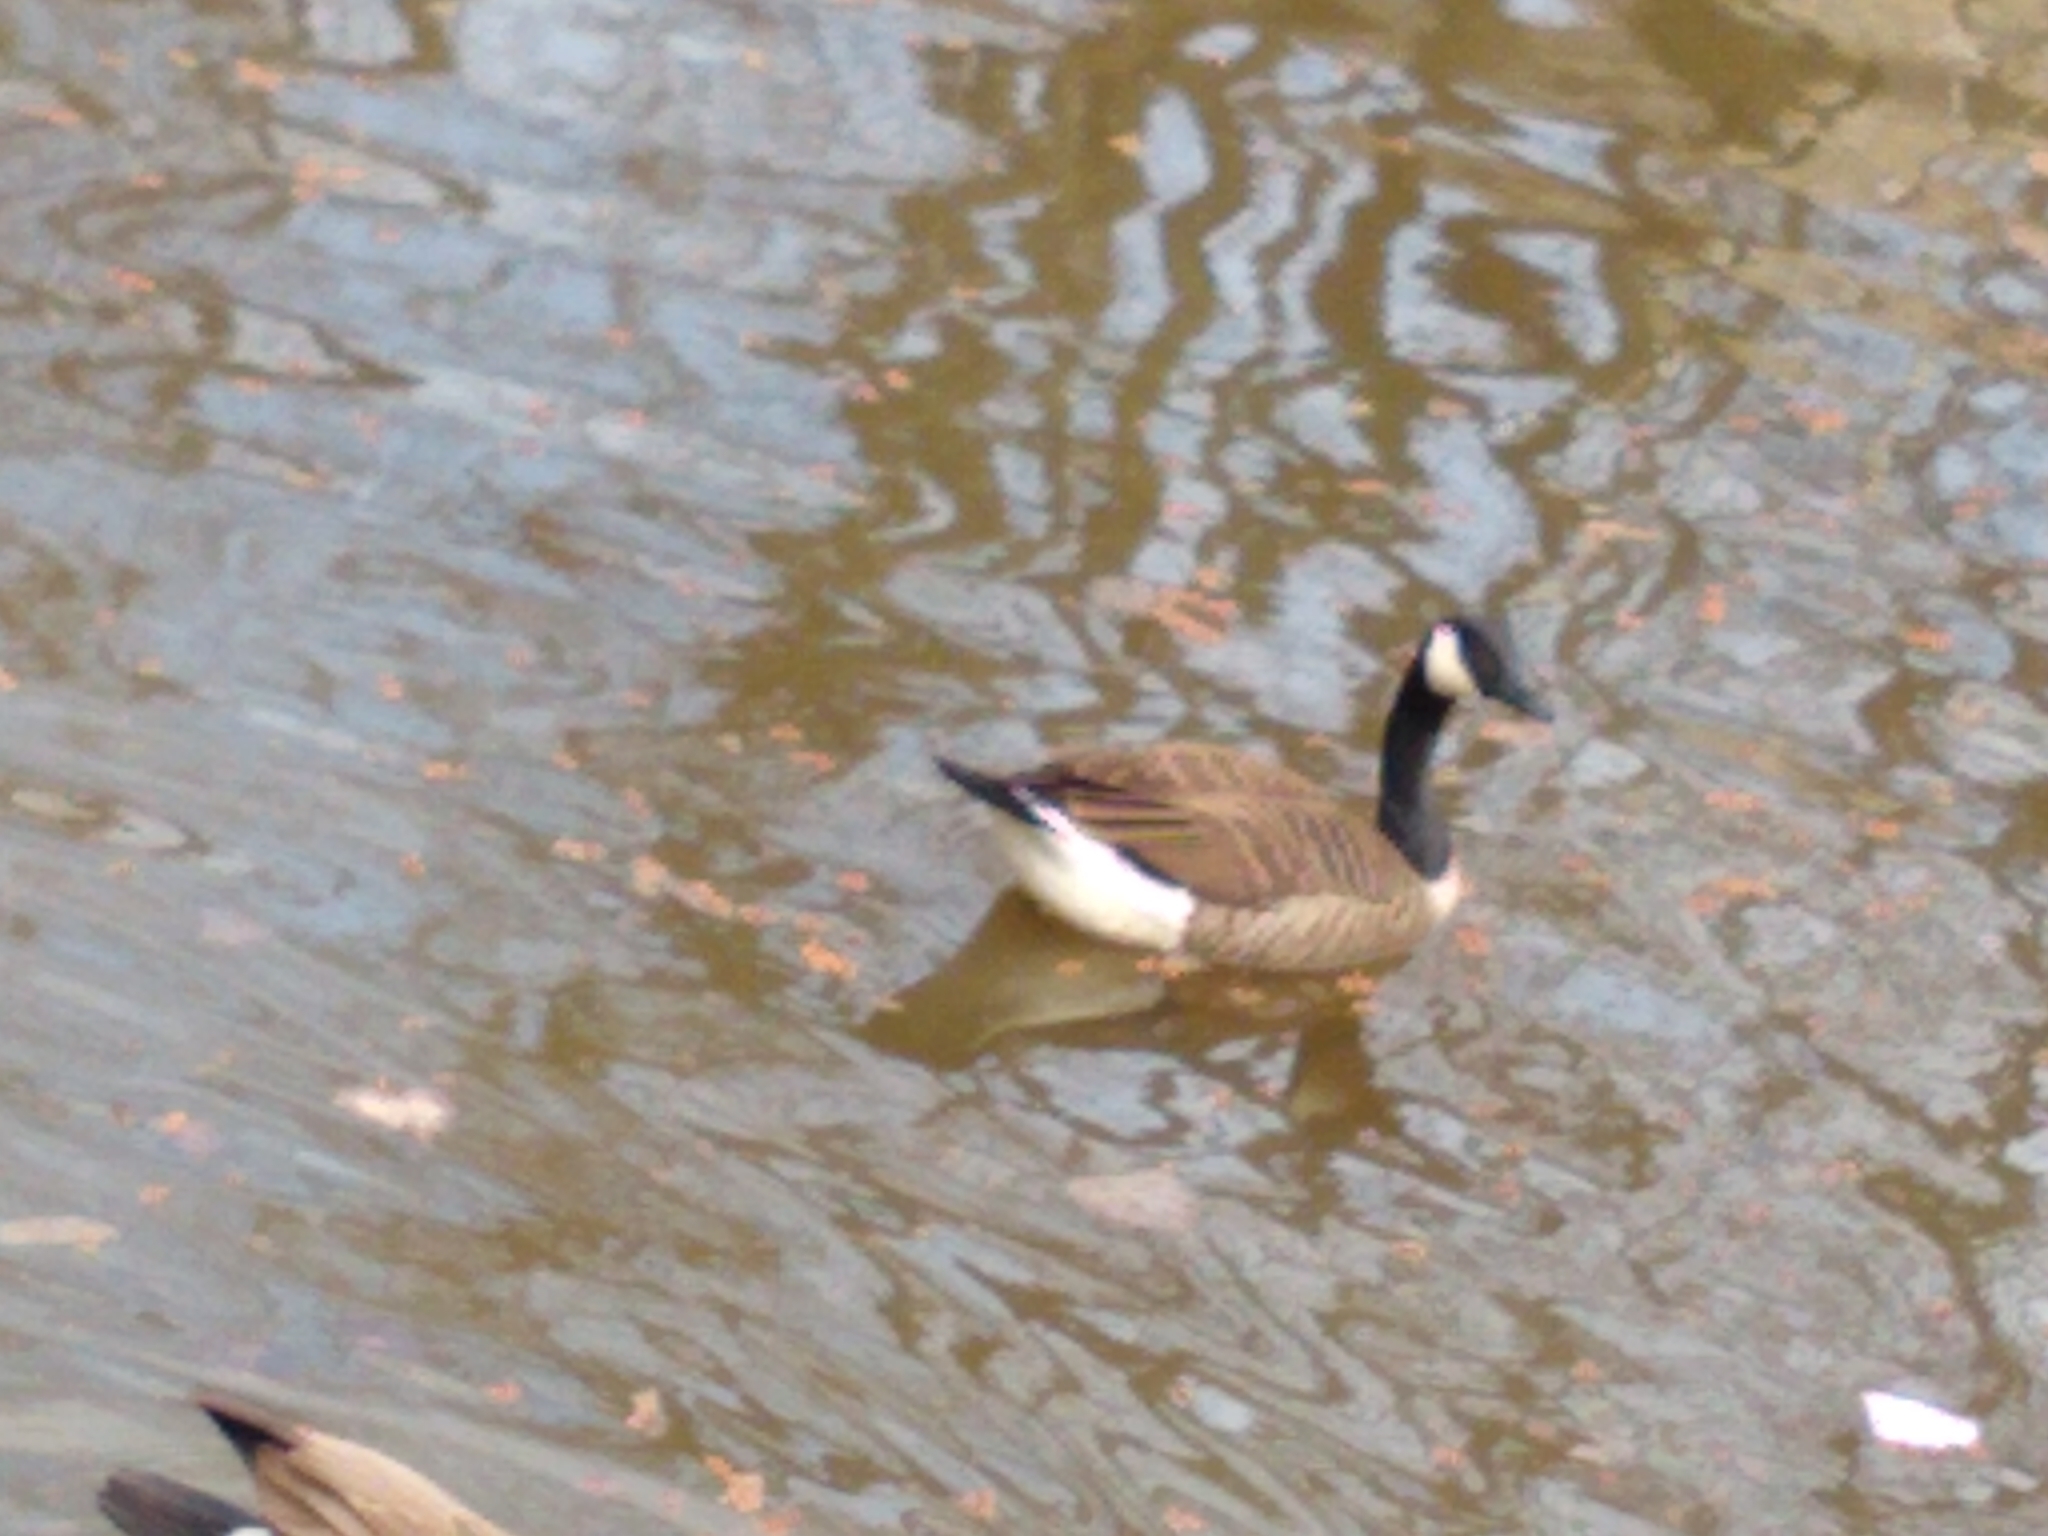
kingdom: Animalia
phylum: Chordata
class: Aves
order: Anseriformes
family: Anatidae
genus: Branta
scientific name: Branta canadensis
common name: Canada goose
